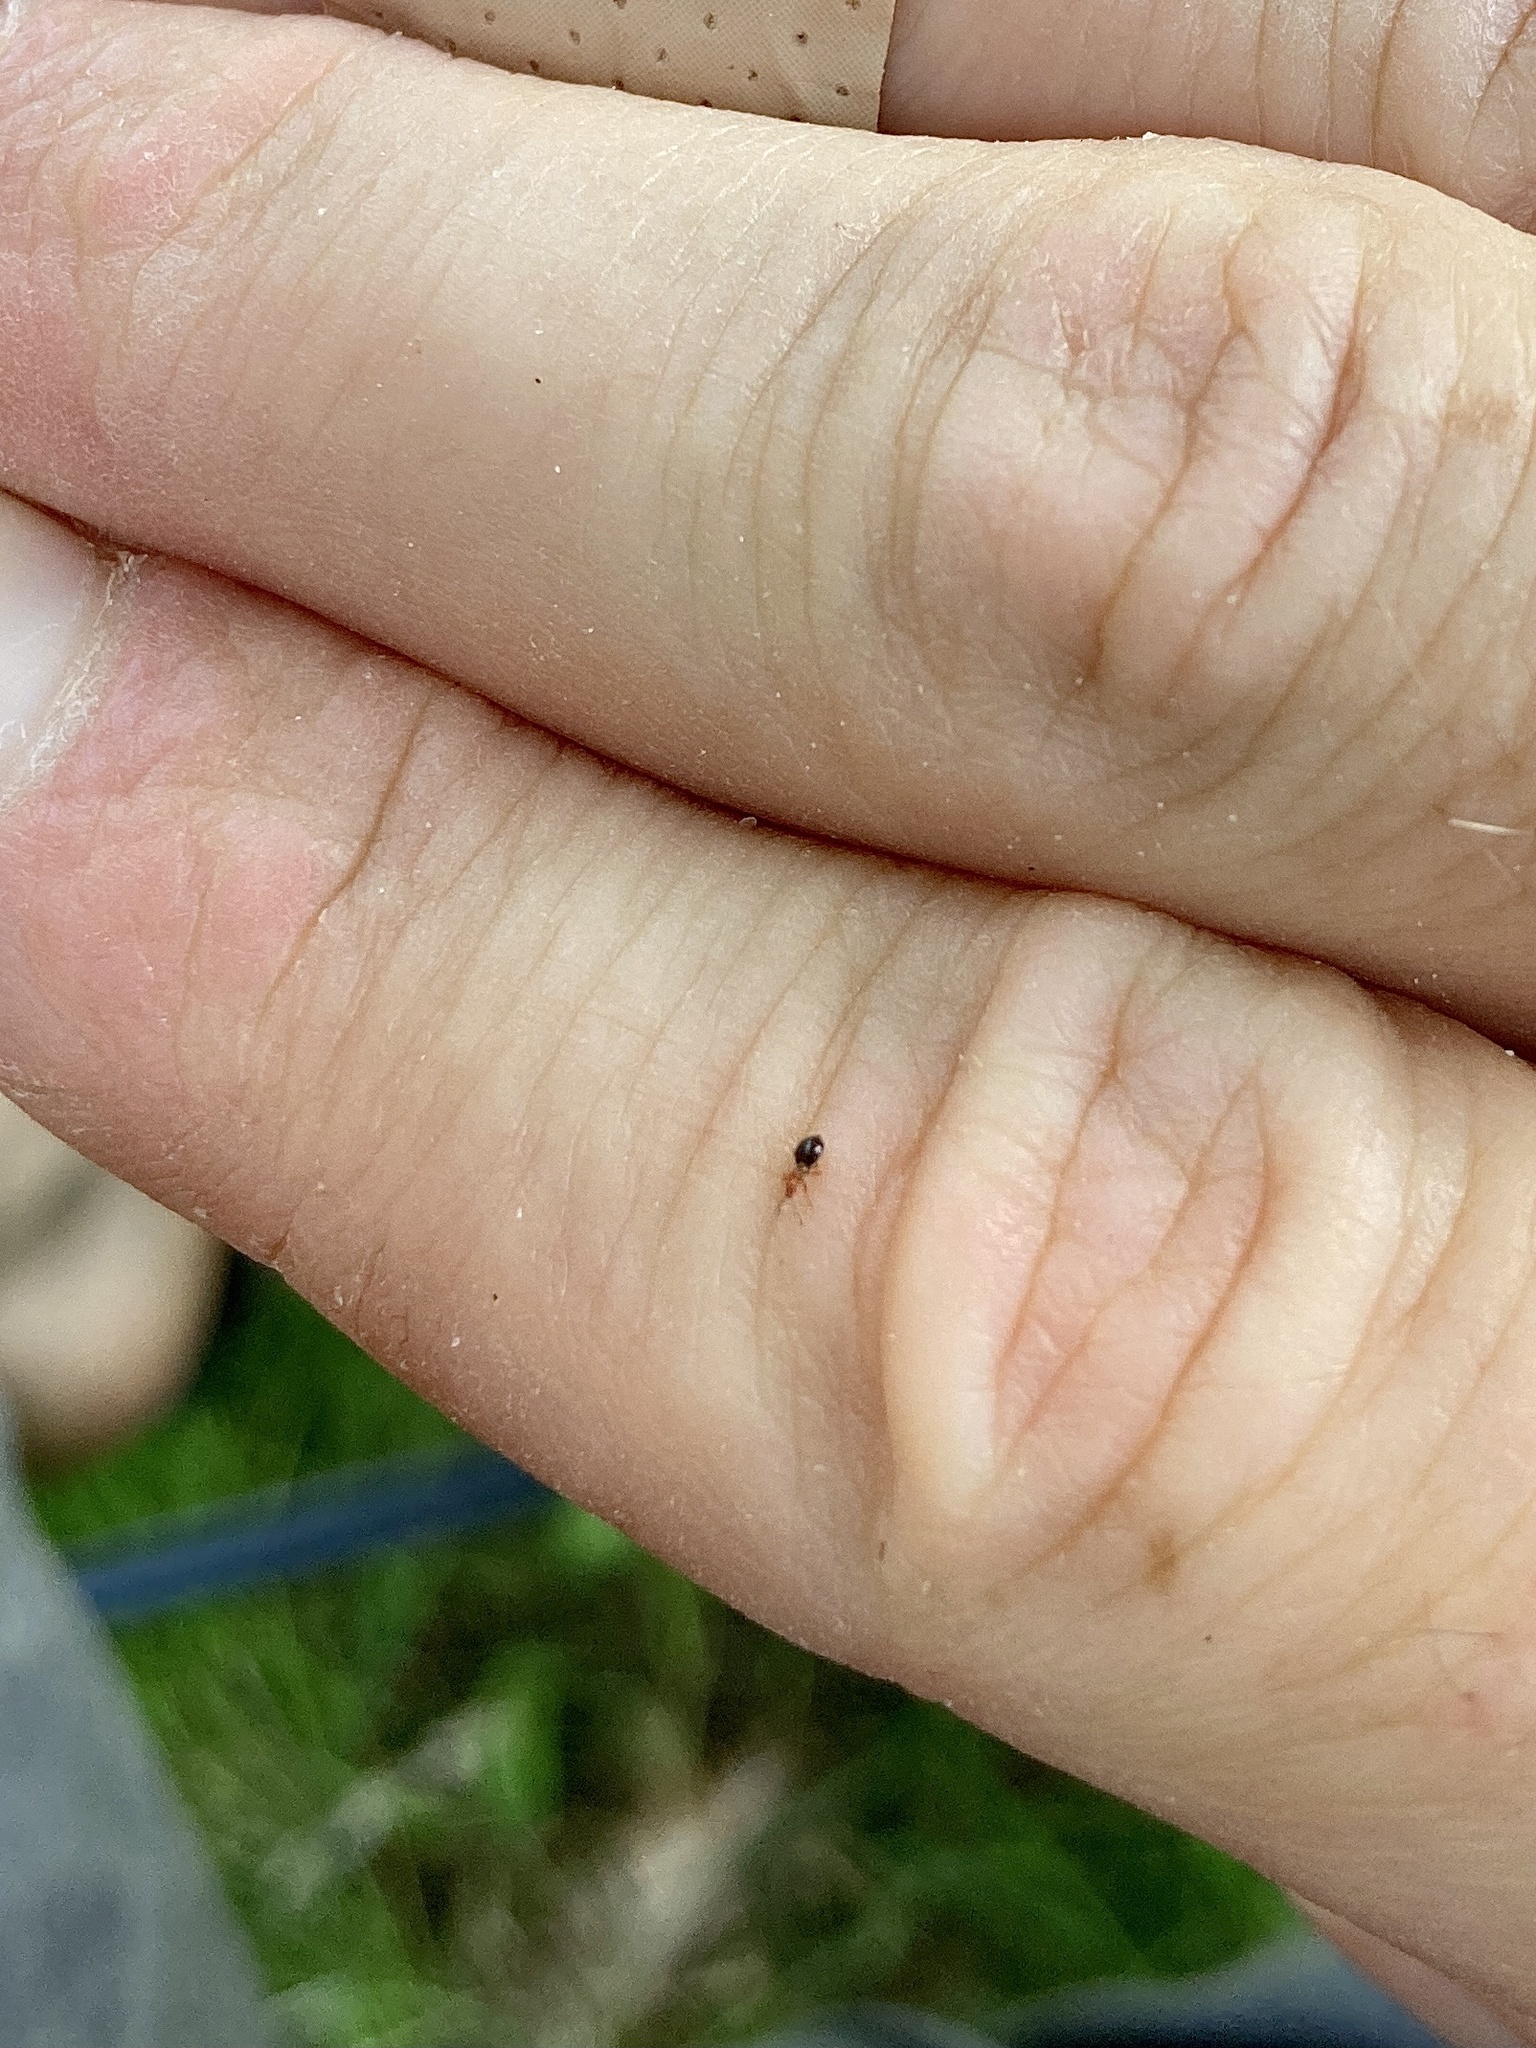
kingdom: Animalia
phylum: Arthropoda
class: Insecta
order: Hemiptera
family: Microphysidae
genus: Loricula
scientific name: Loricula elegantula
